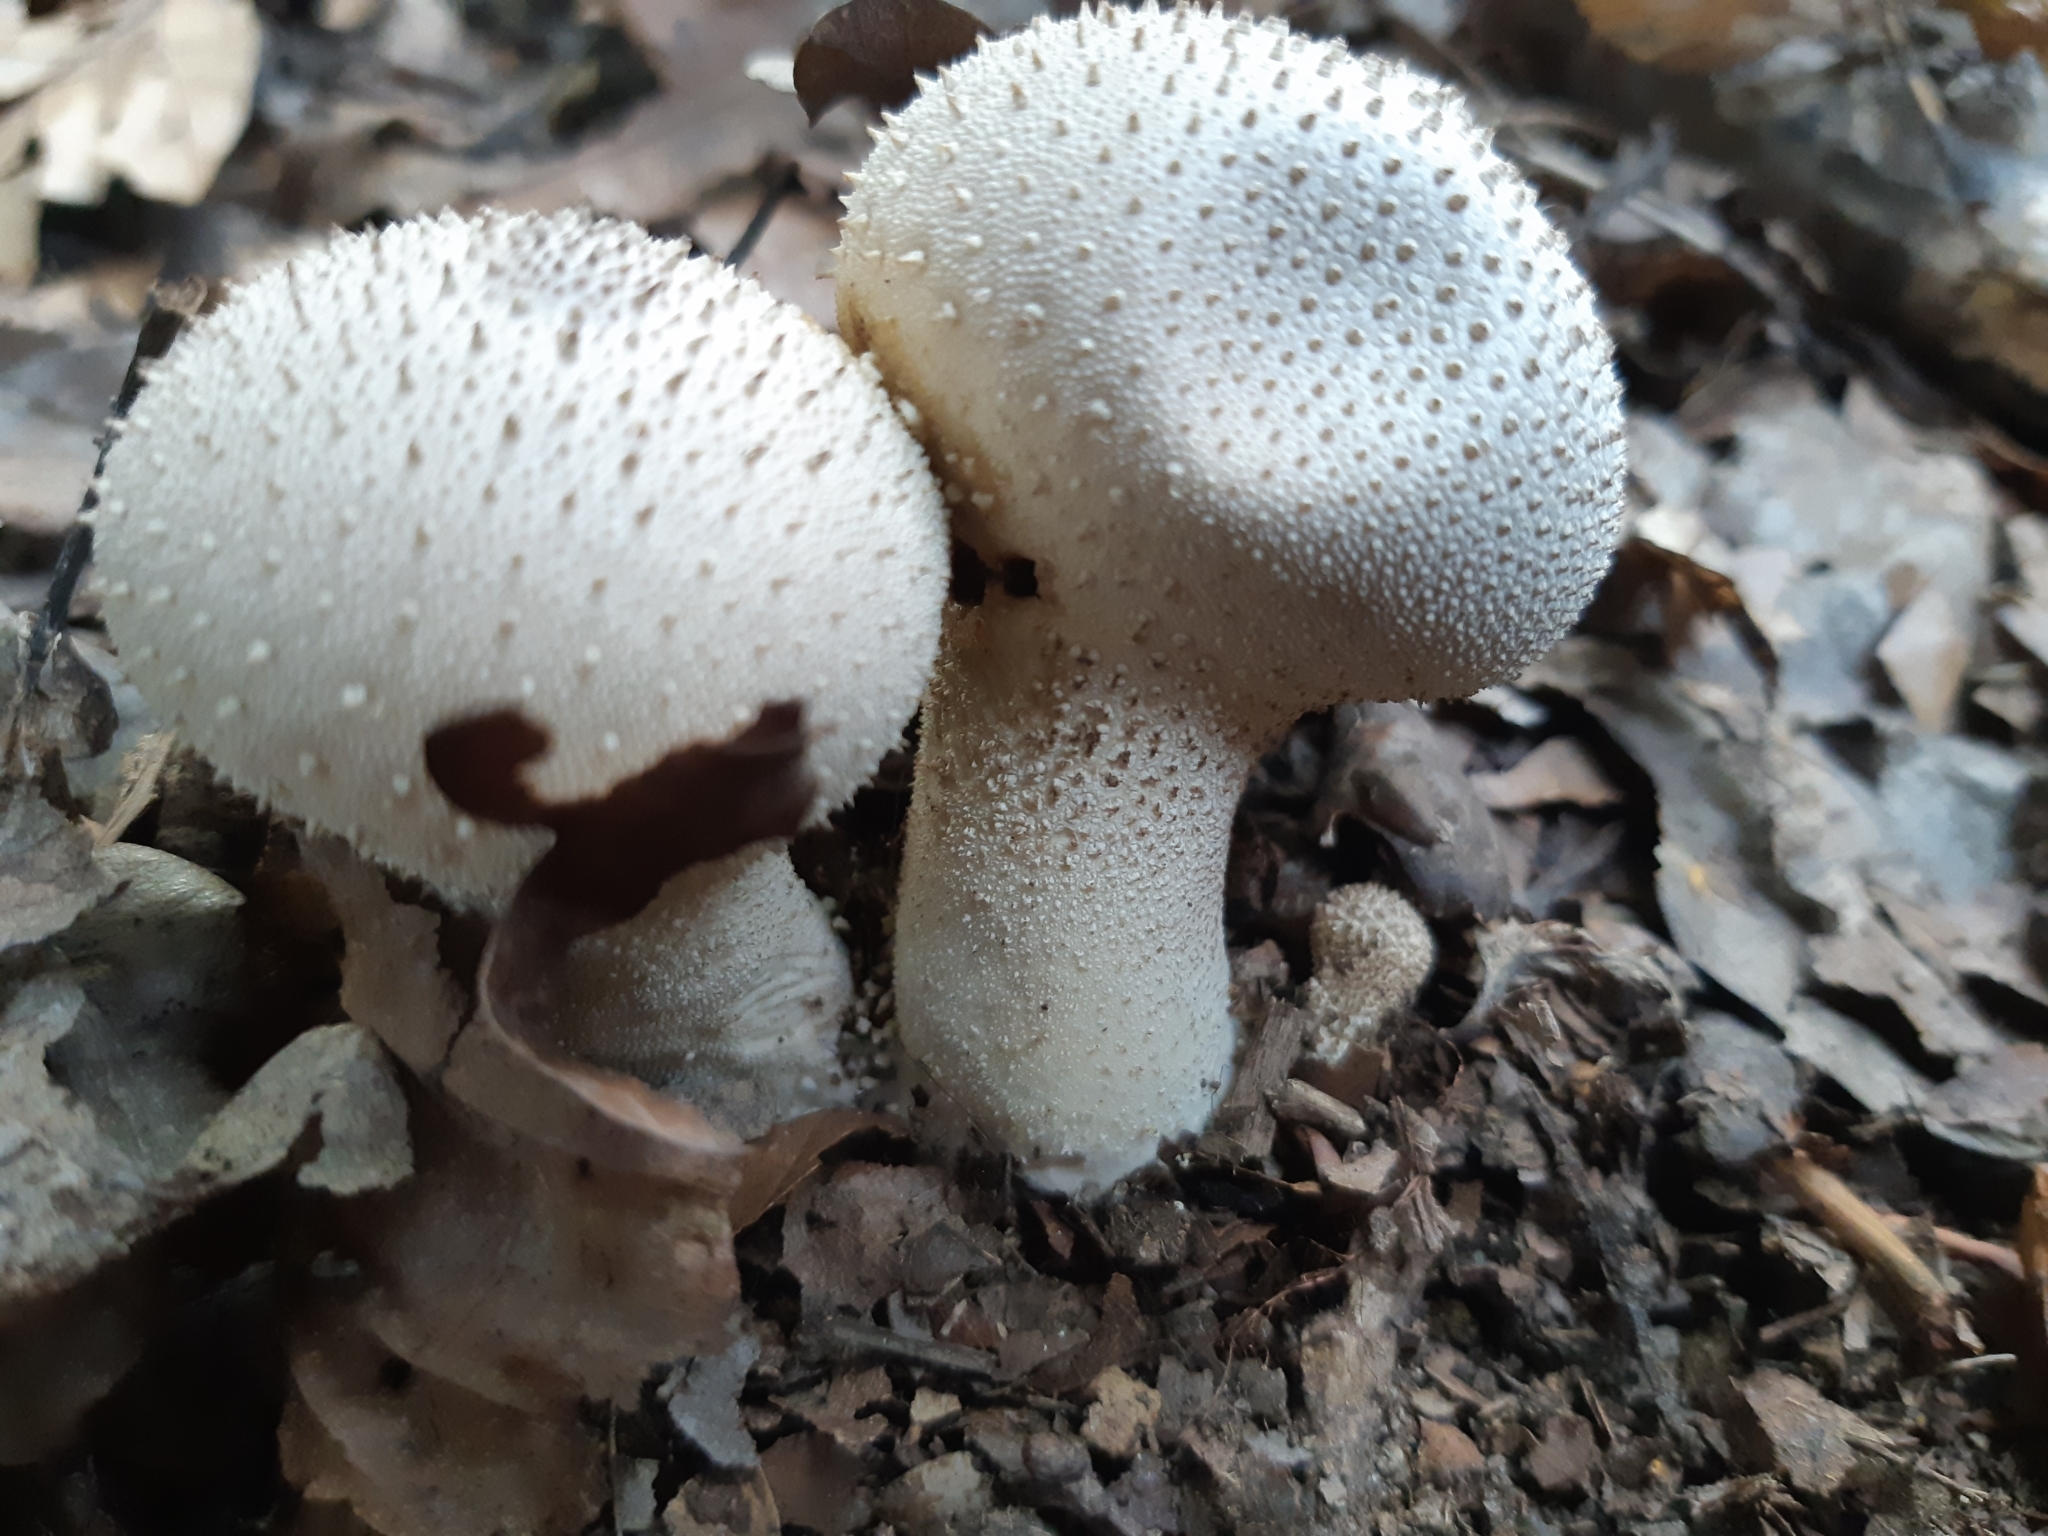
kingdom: Fungi
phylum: Basidiomycota
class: Agaricomycetes
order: Agaricales
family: Lycoperdaceae
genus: Lycoperdon
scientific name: Lycoperdon perlatum
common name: Common puffball
